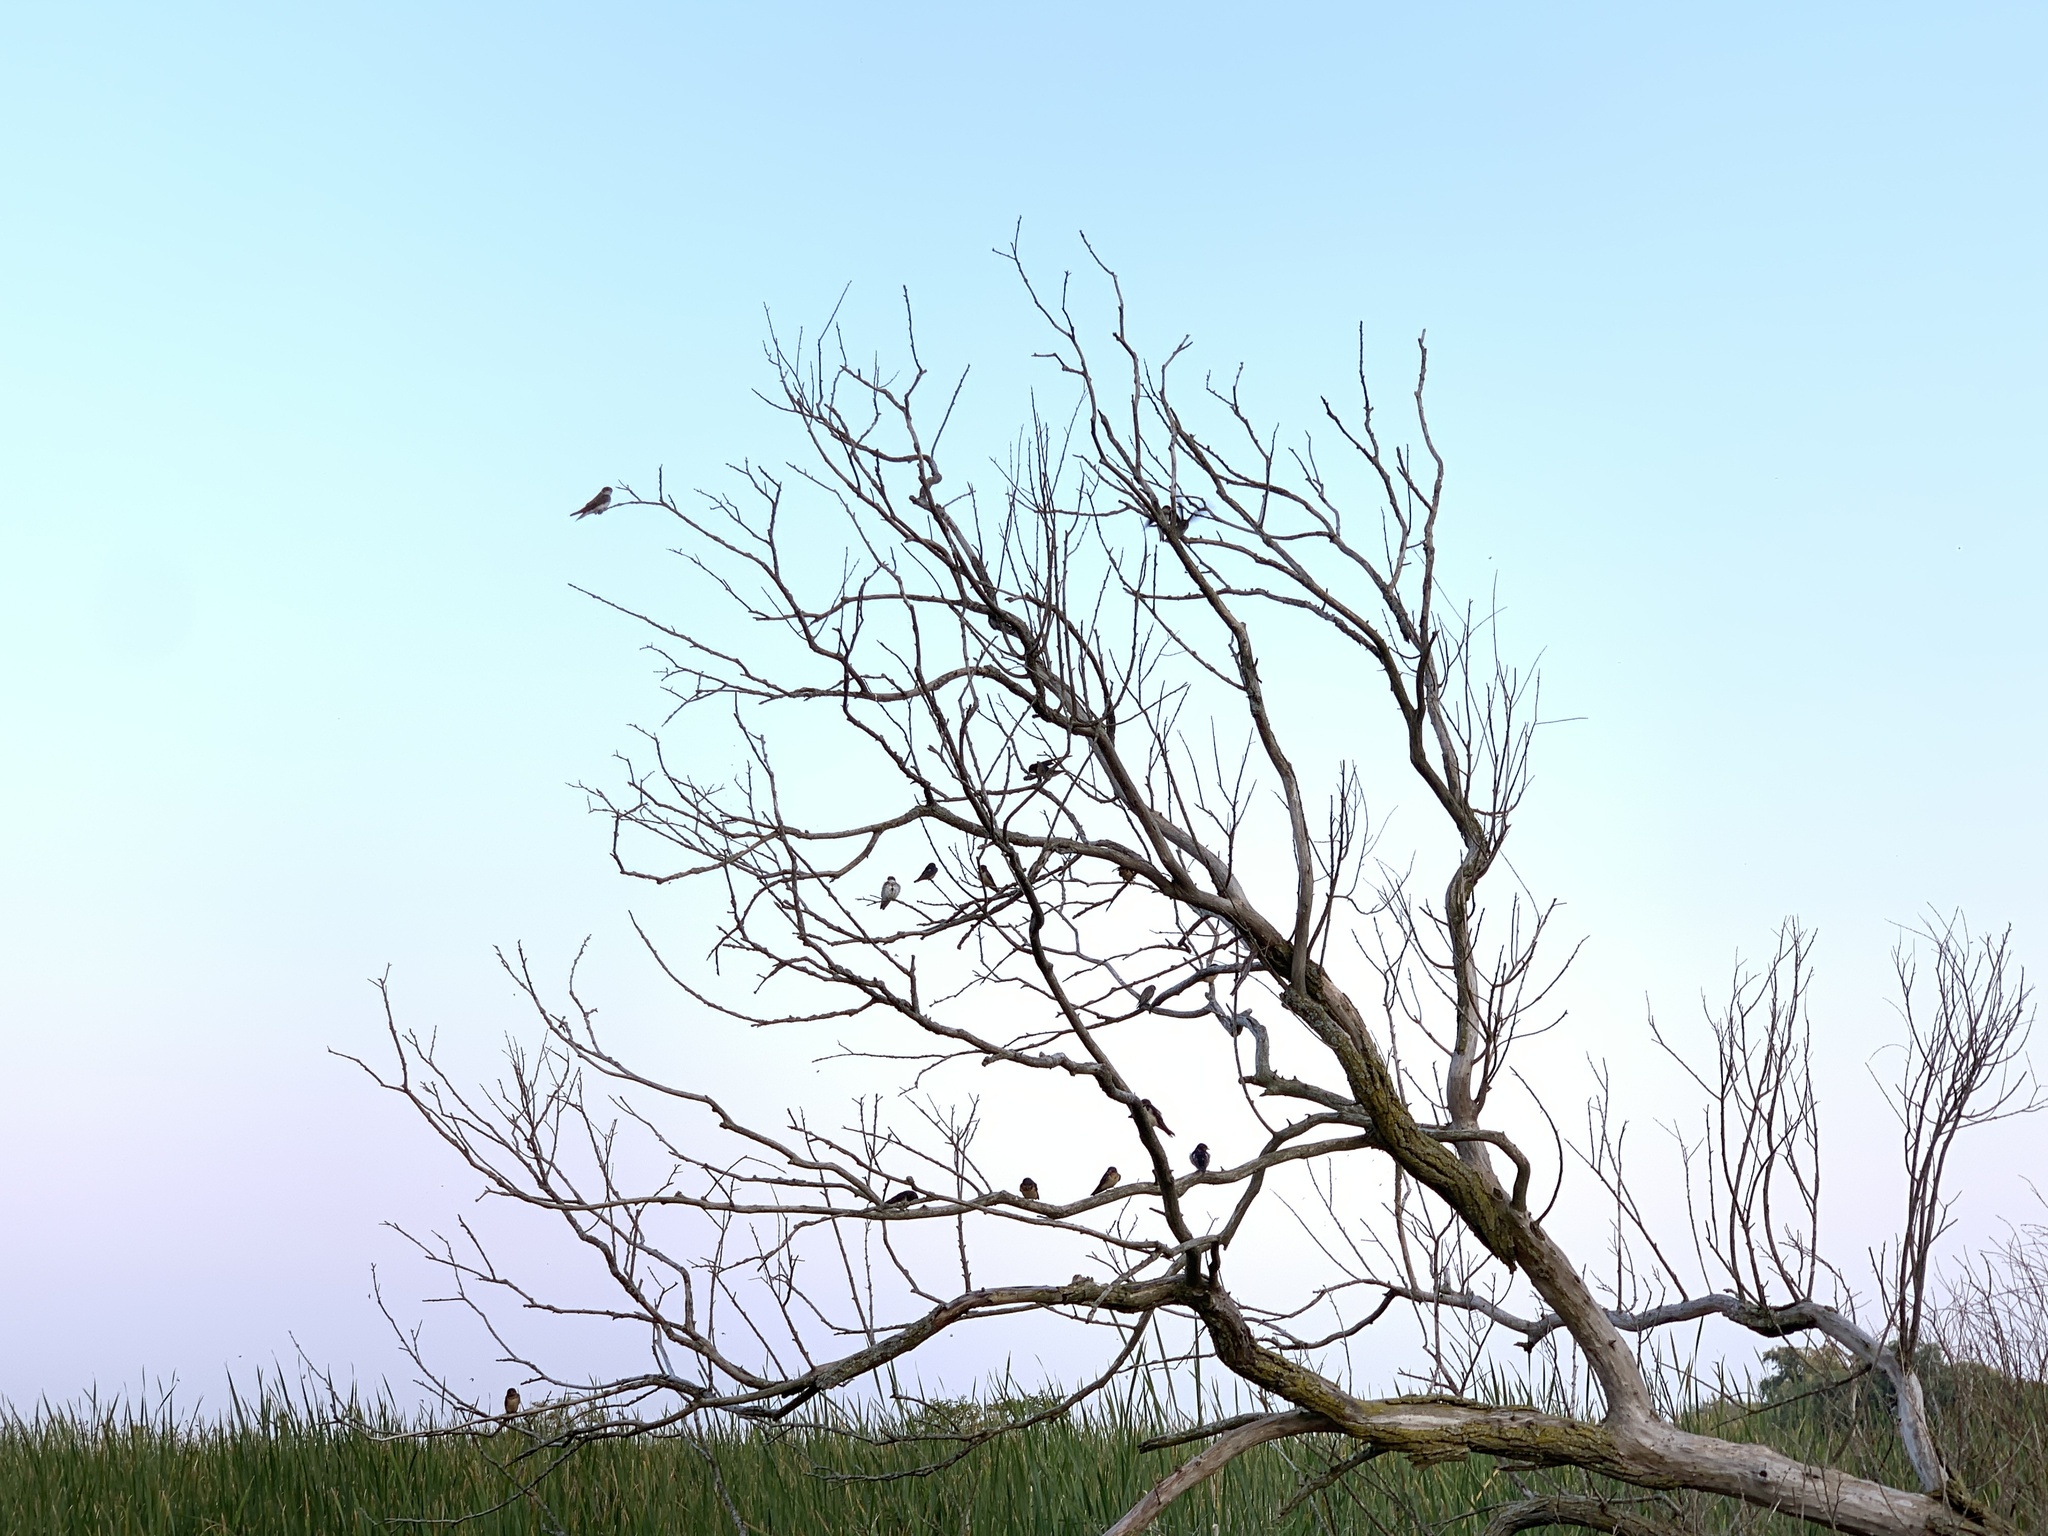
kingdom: Animalia
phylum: Chordata
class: Aves
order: Passeriformes
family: Hirundinidae
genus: Hirundo
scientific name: Hirundo rustica
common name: Barn swallow
